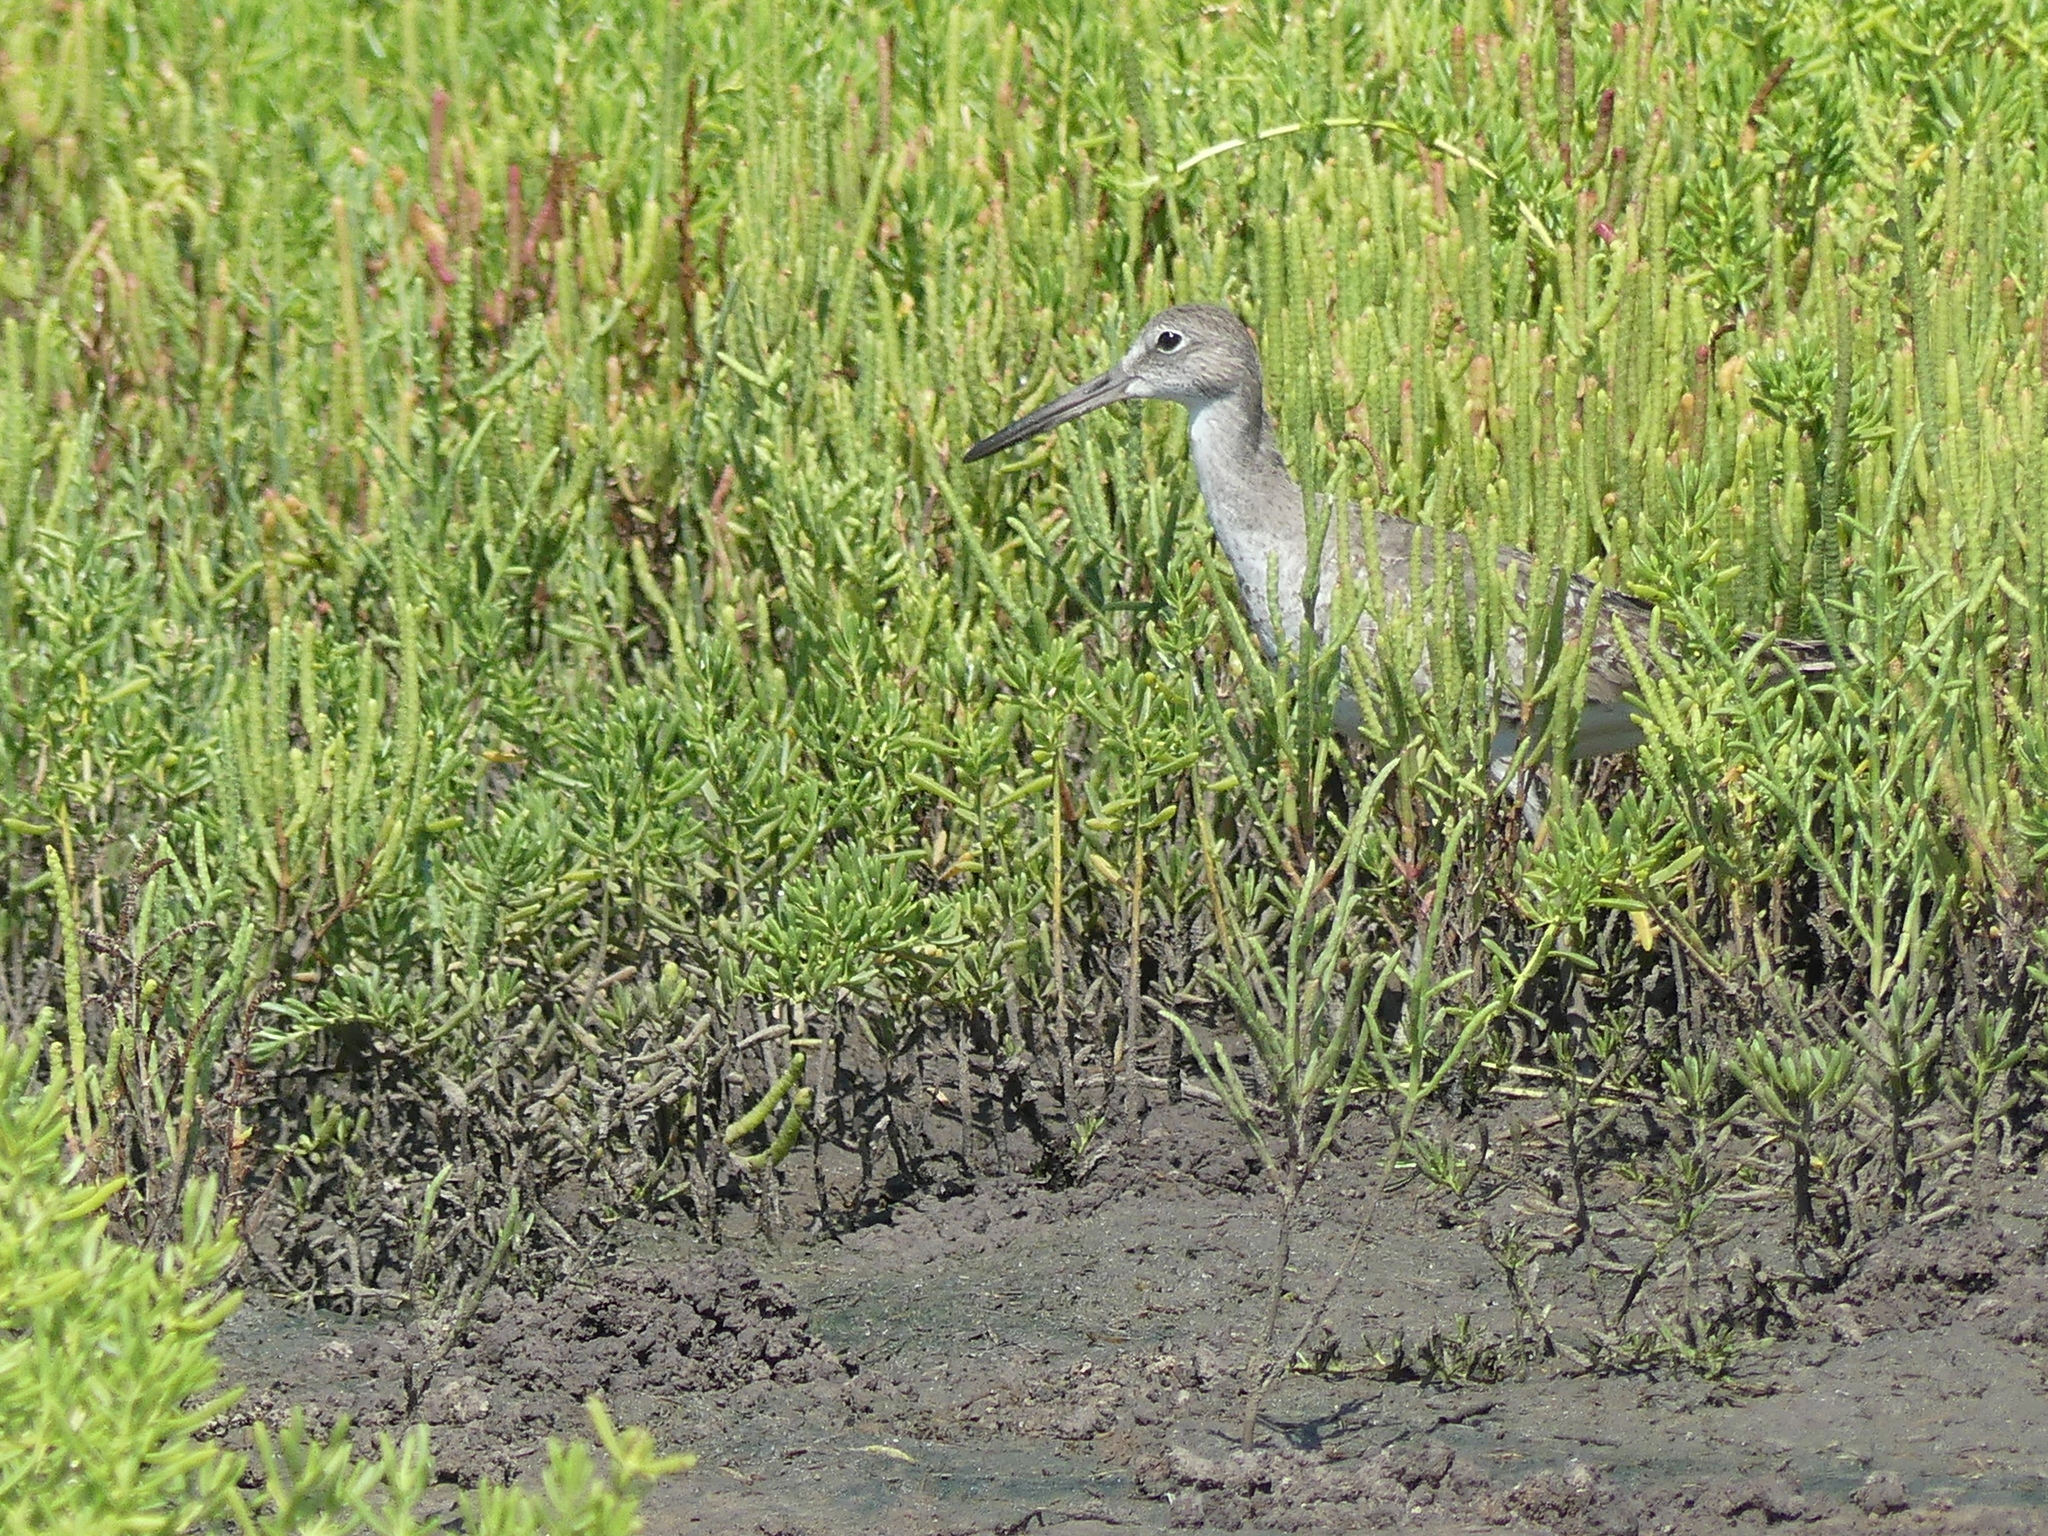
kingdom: Animalia
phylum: Chordata
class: Aves
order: Charadriiformes
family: Scolopacidae
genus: Tringa
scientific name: Tringa semipalmata
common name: Willet
